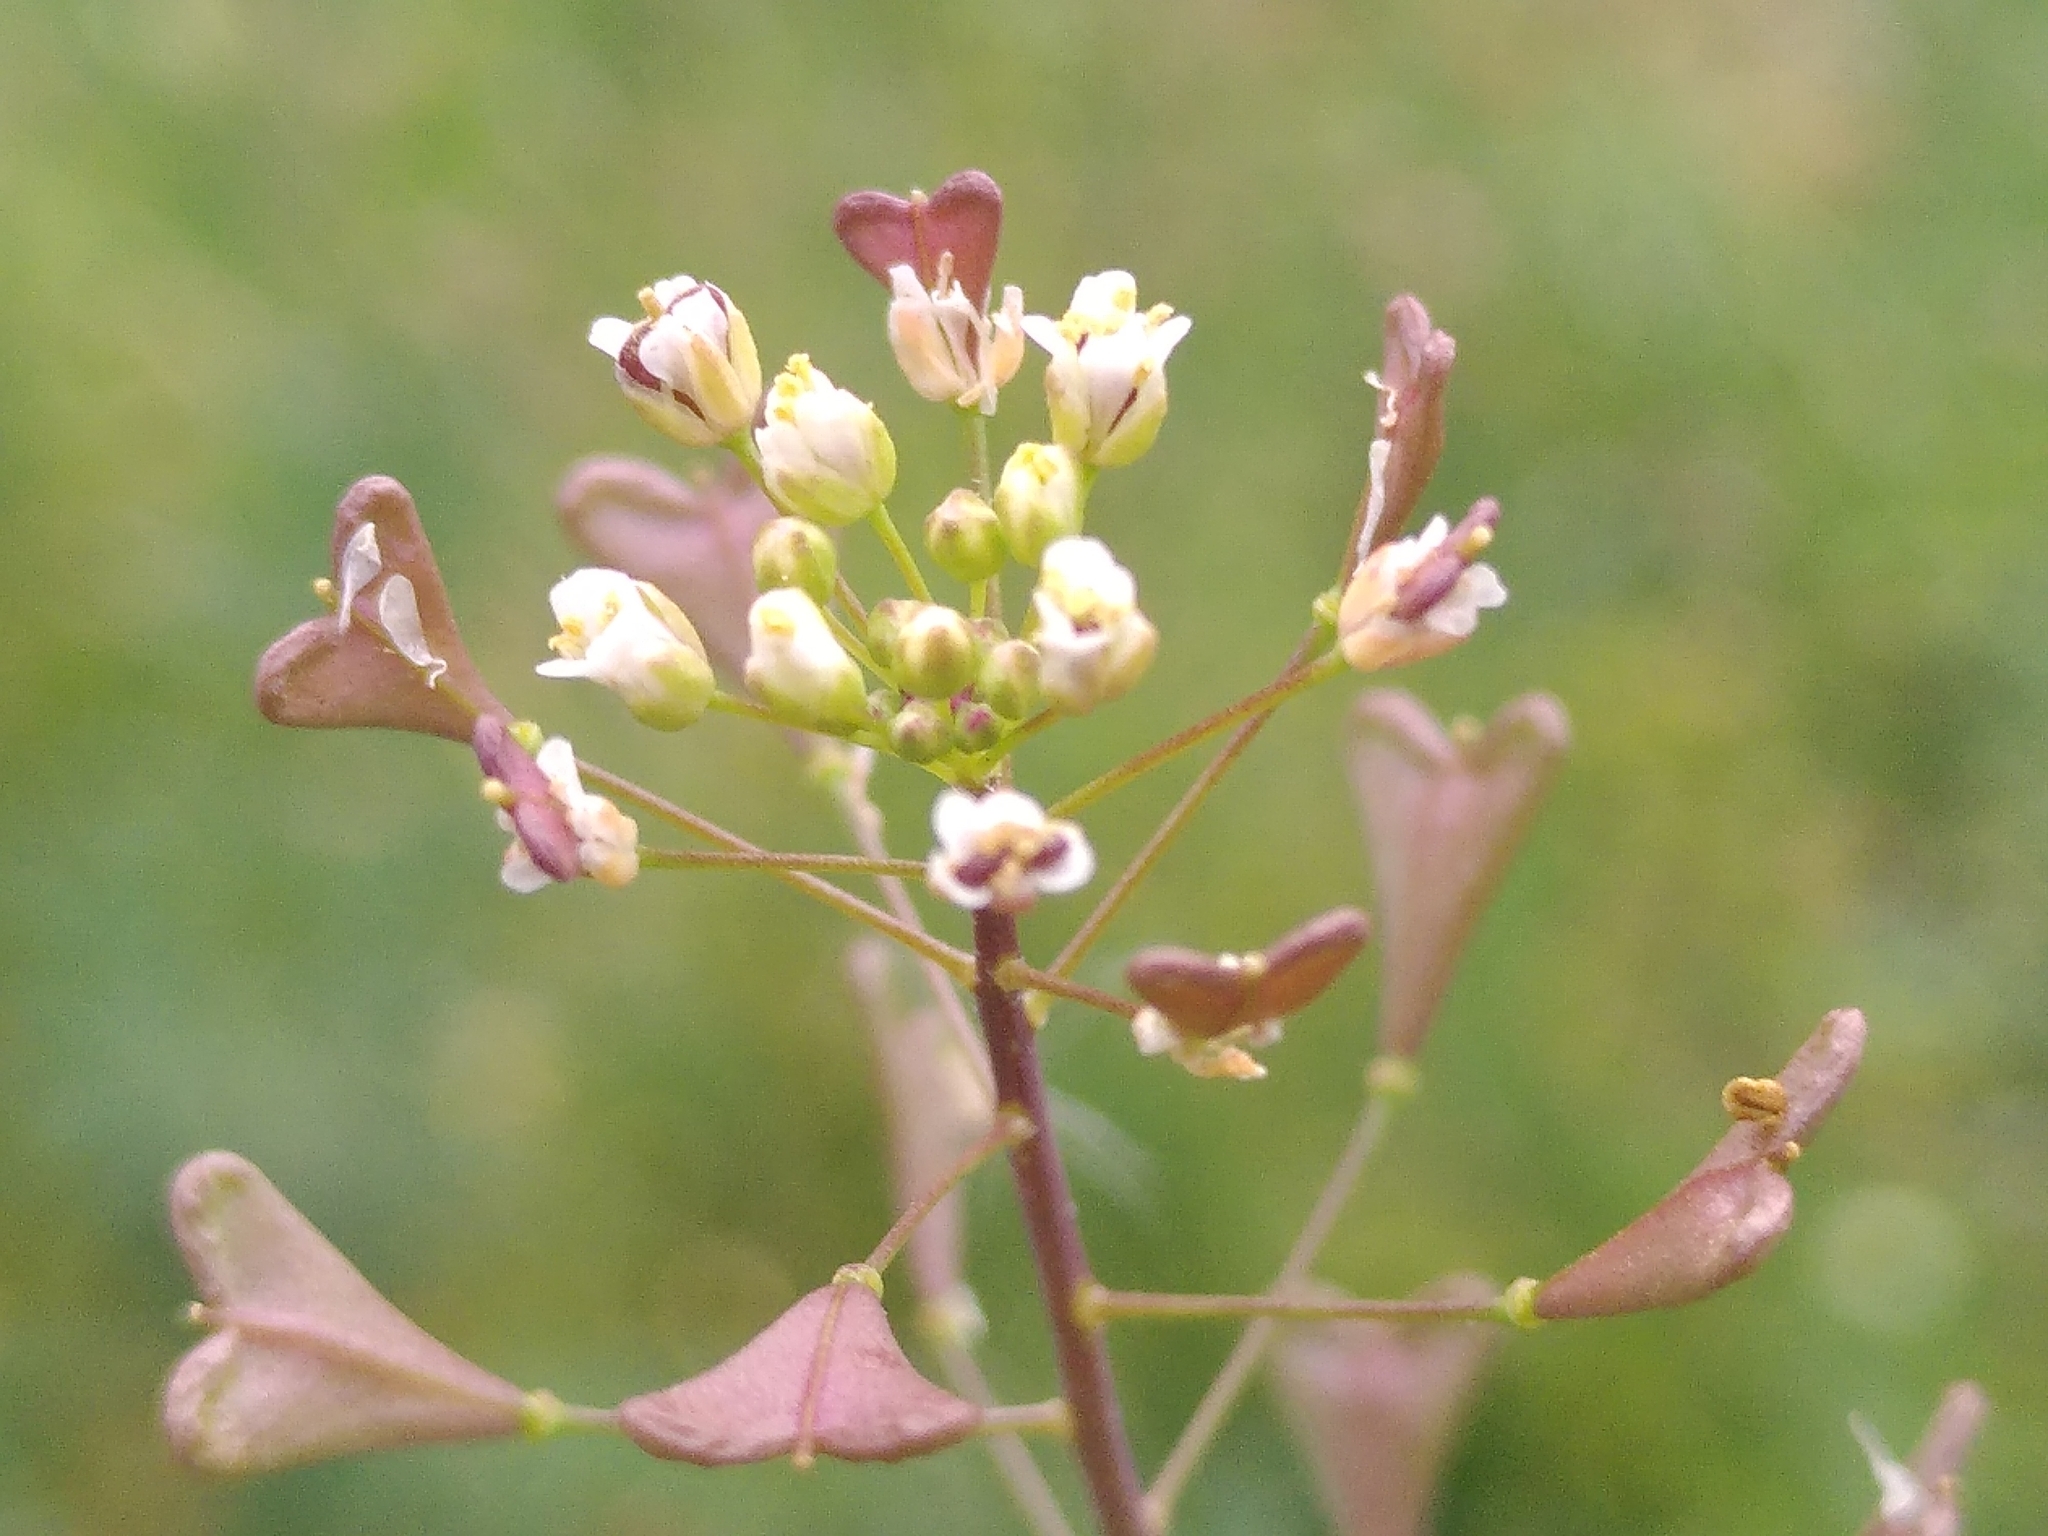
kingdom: Plantae
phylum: Tracheophyta
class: Magnoliopsida
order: Brassicales
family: Brassicaceae
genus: Capsella
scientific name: Capsella bursa-pastoris
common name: Shepherd's purse
